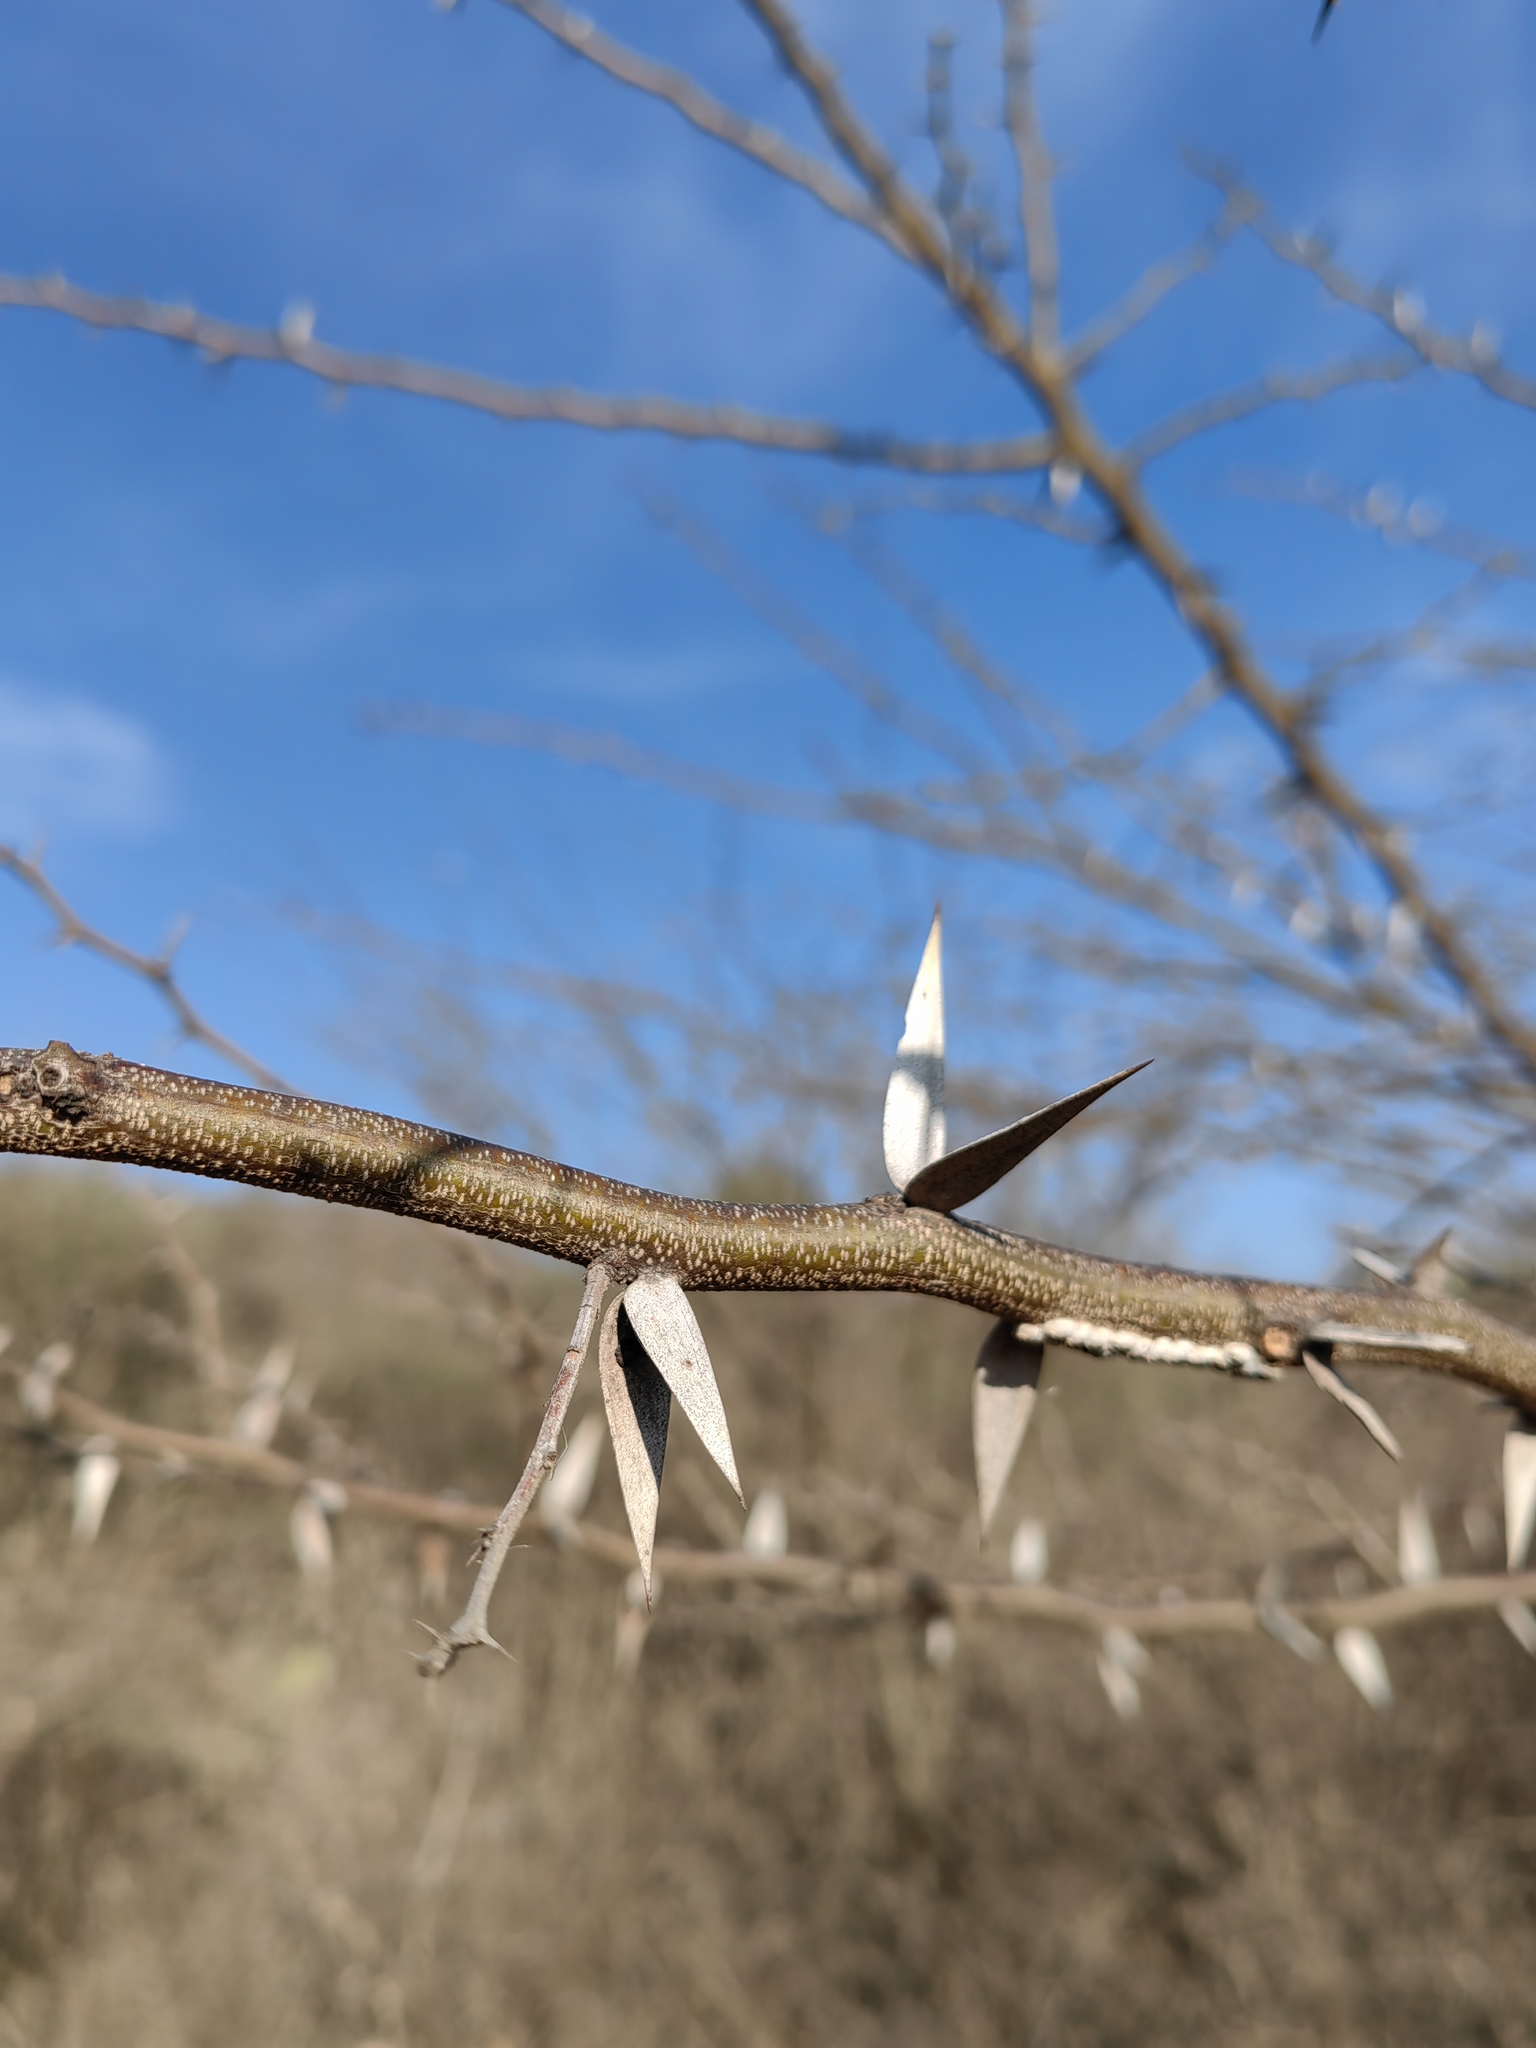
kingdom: Plantae
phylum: Tracheophyta
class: Magnoliopsida
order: Fabales
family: Fabaceae
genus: Vachellia
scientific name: Vachellia campechiana
